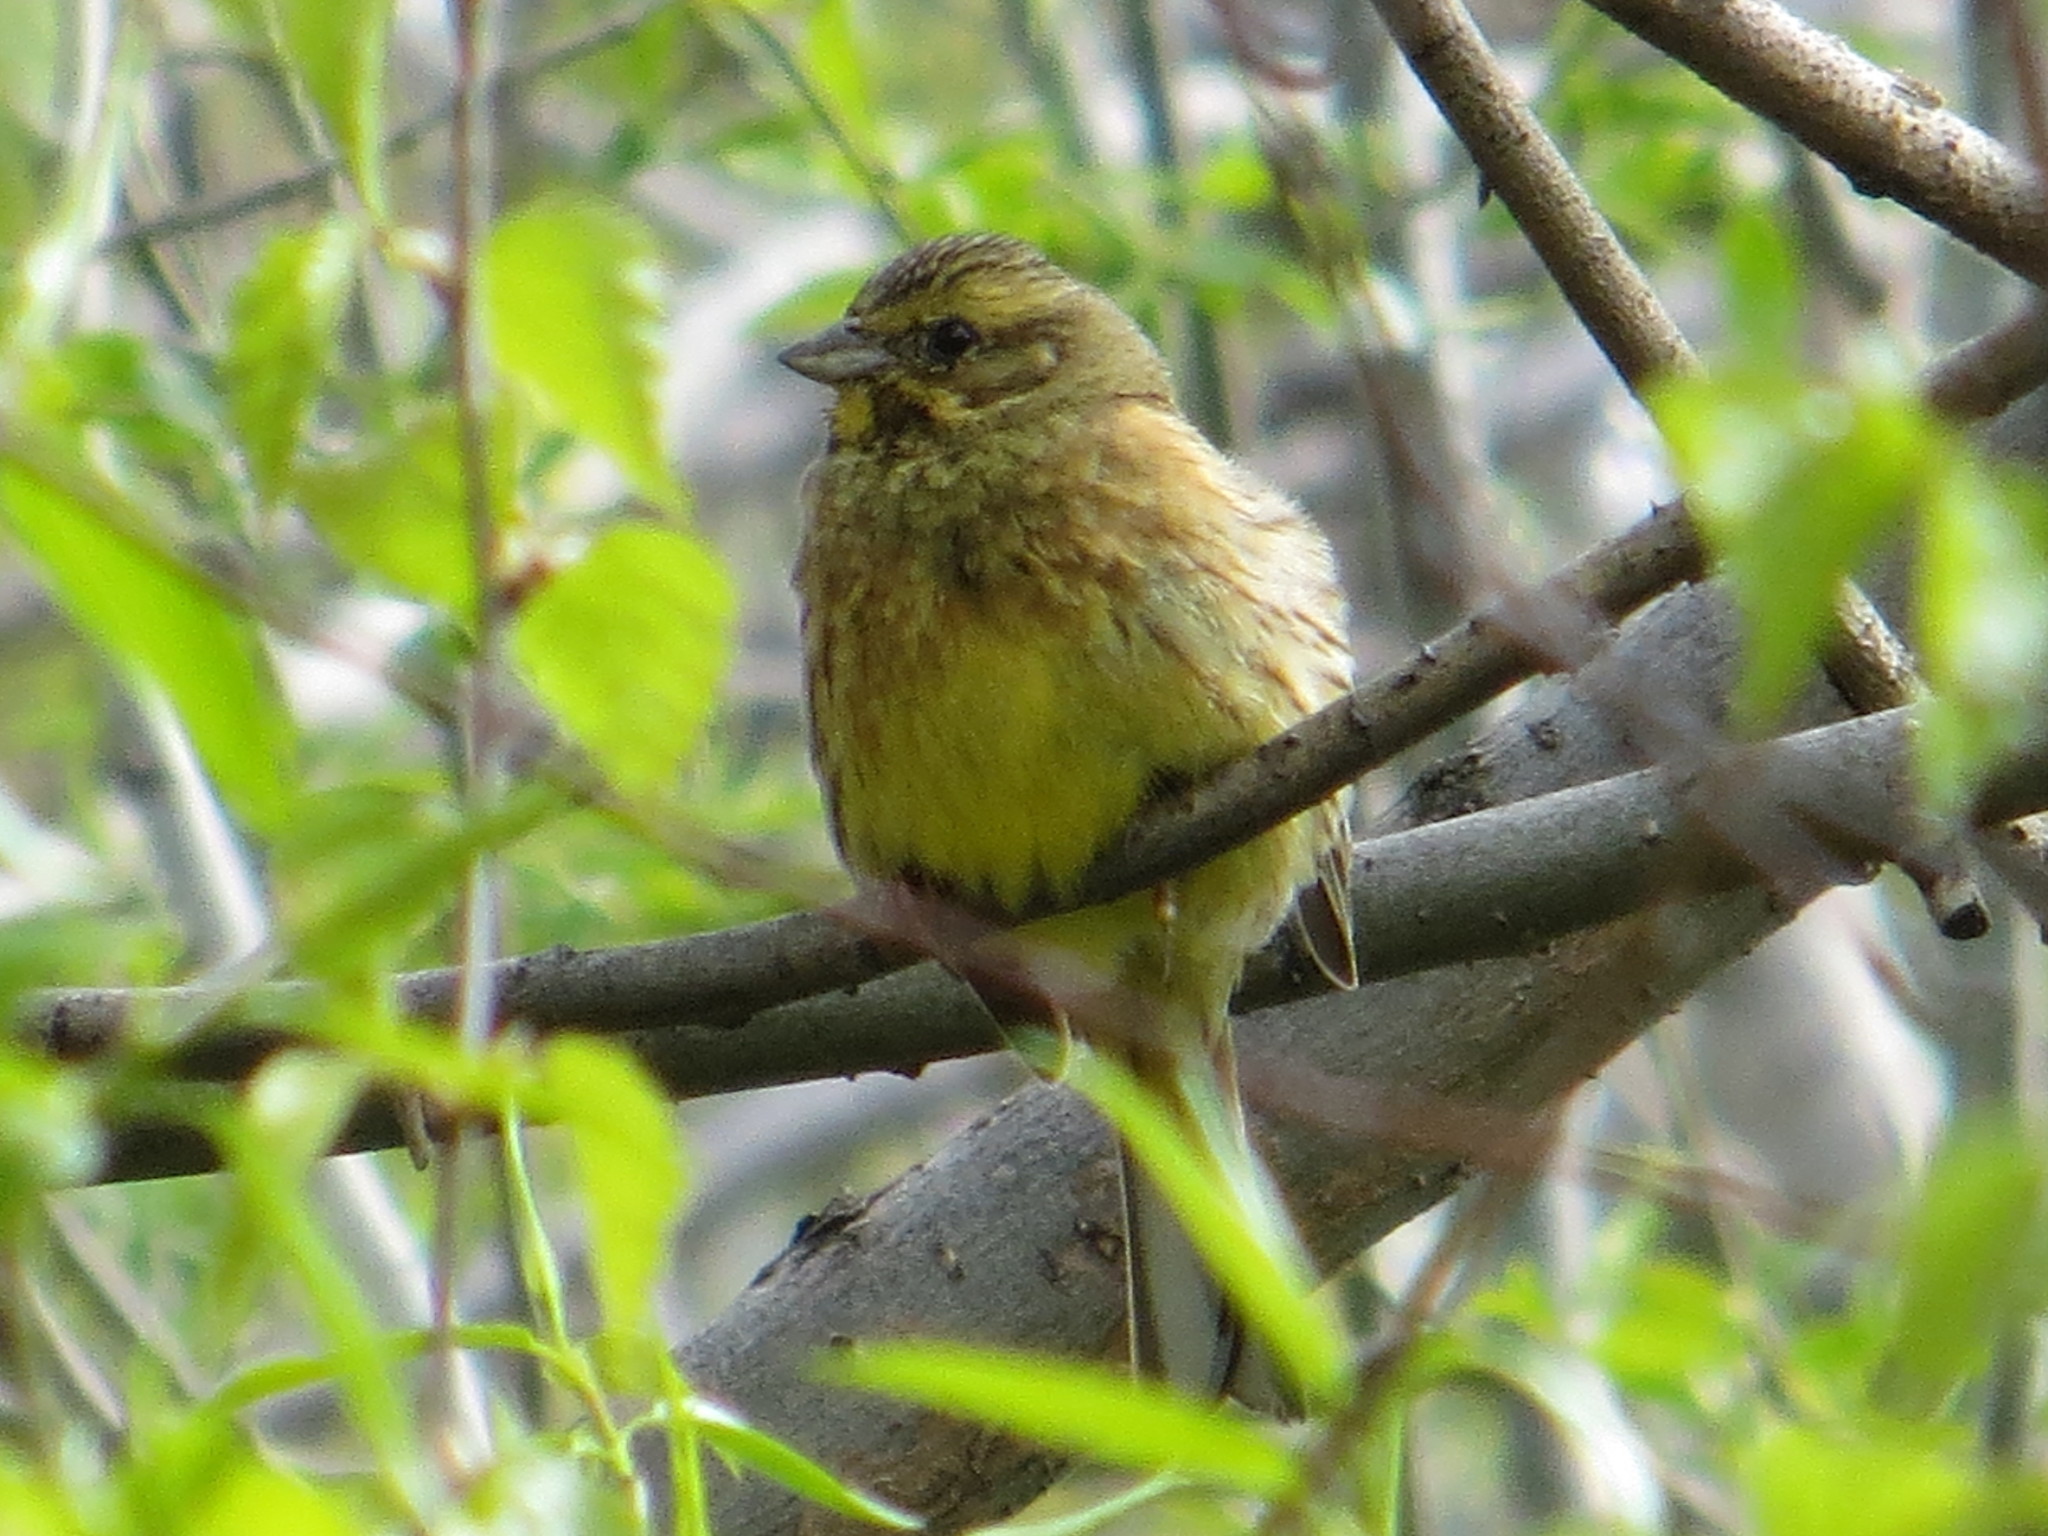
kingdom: Animalia
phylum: Chordata
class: Aves
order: Passeriformes
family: Emberizidae
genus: Emberiza
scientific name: Emberiza citrinella
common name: Yellowhammer
